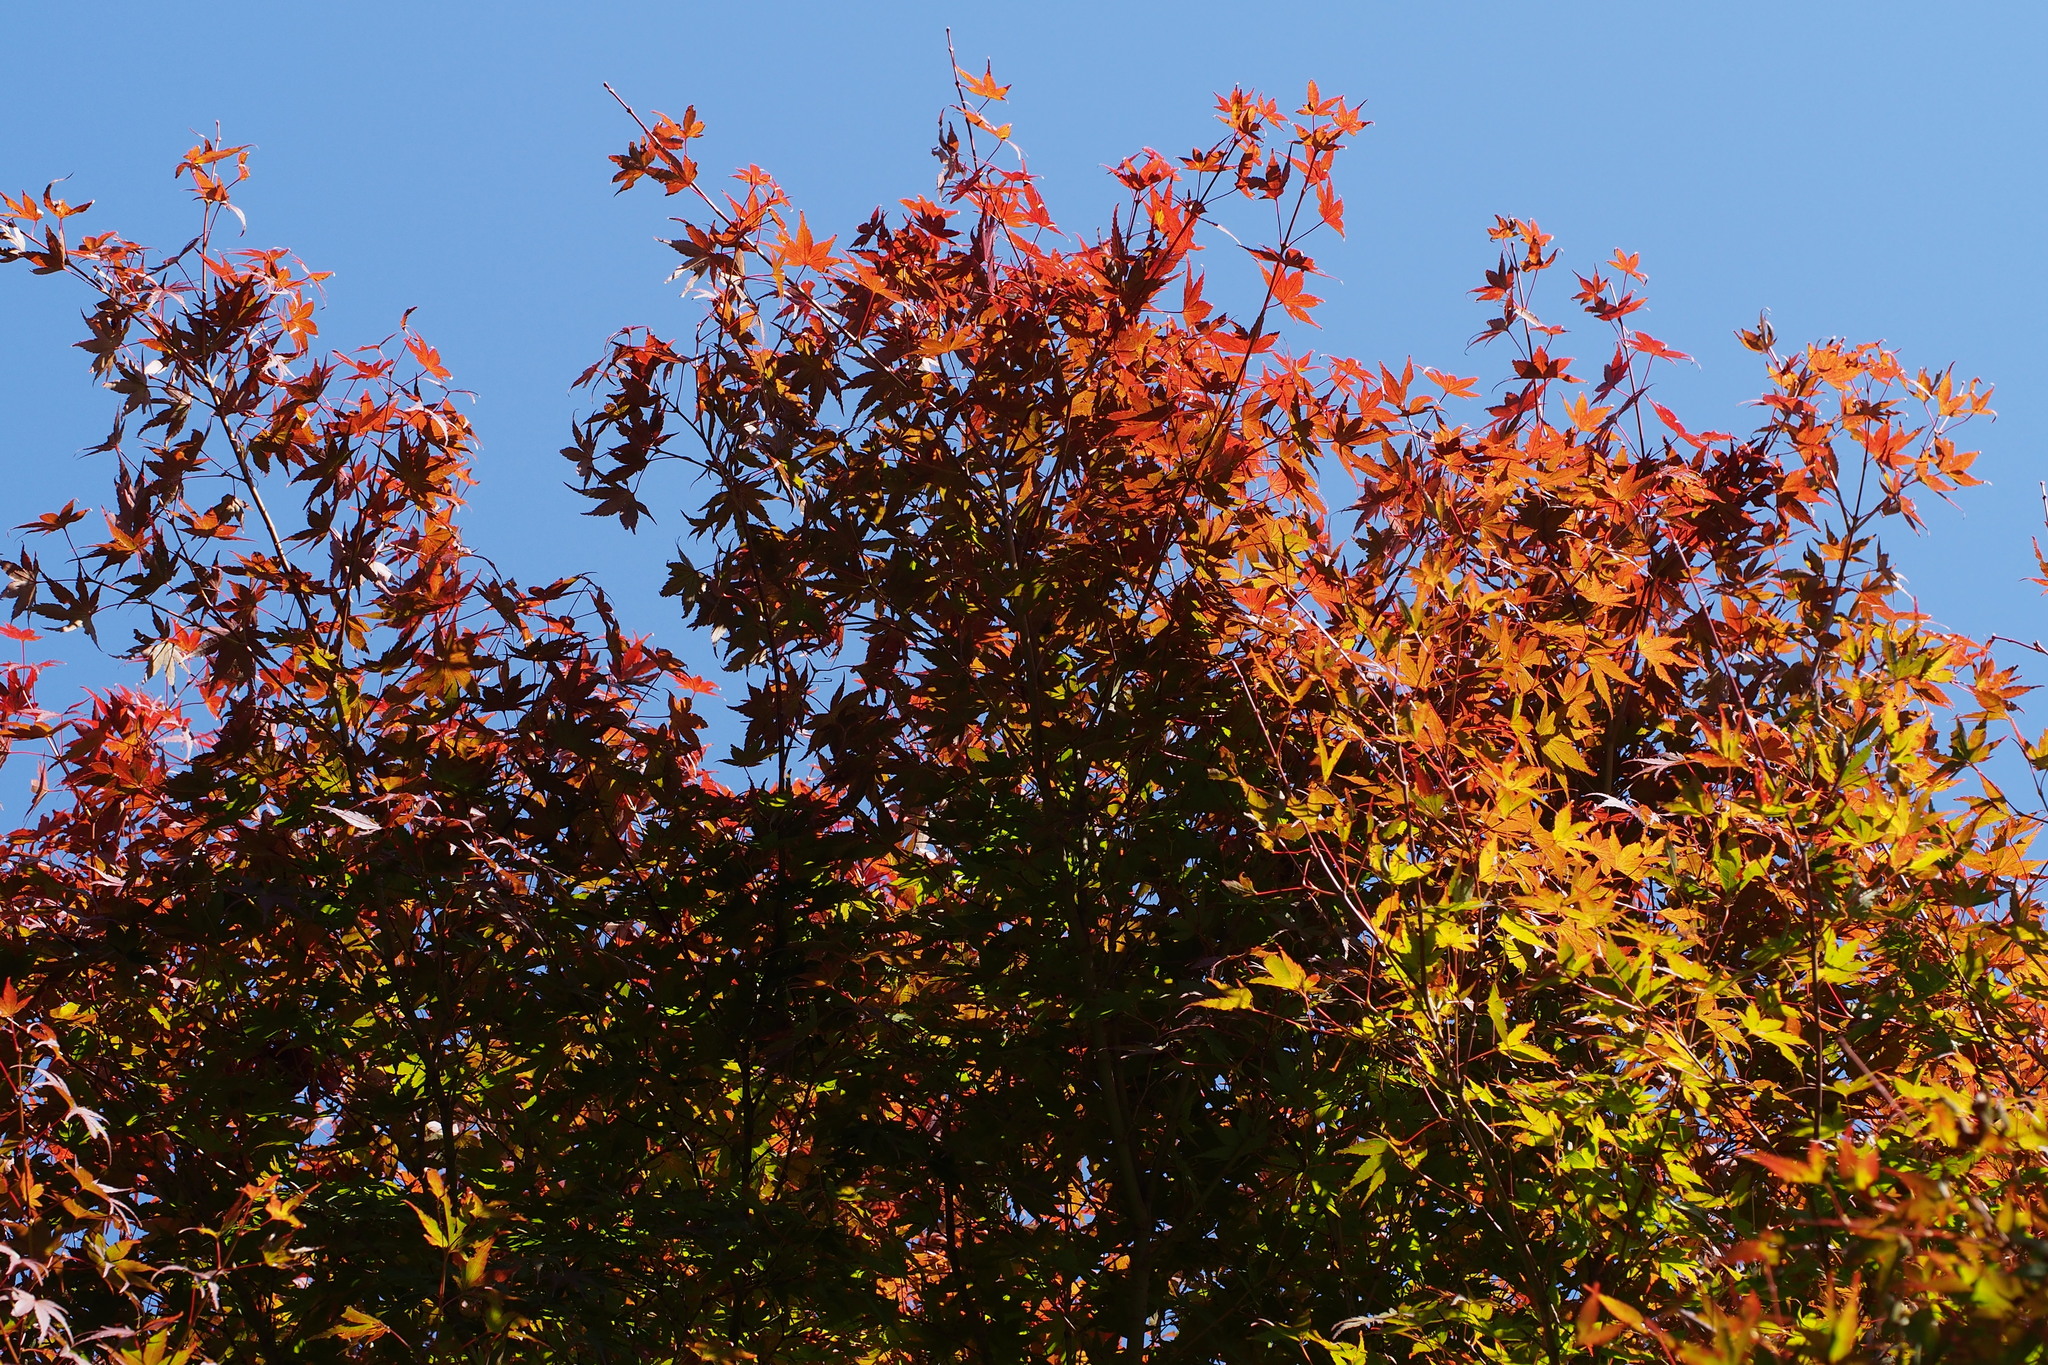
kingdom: Plantae
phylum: Tracheophyta
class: Magnoliopsida
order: Sapindales
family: Sapindaceae
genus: Acer
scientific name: Acer palmatum
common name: Japanese maple
